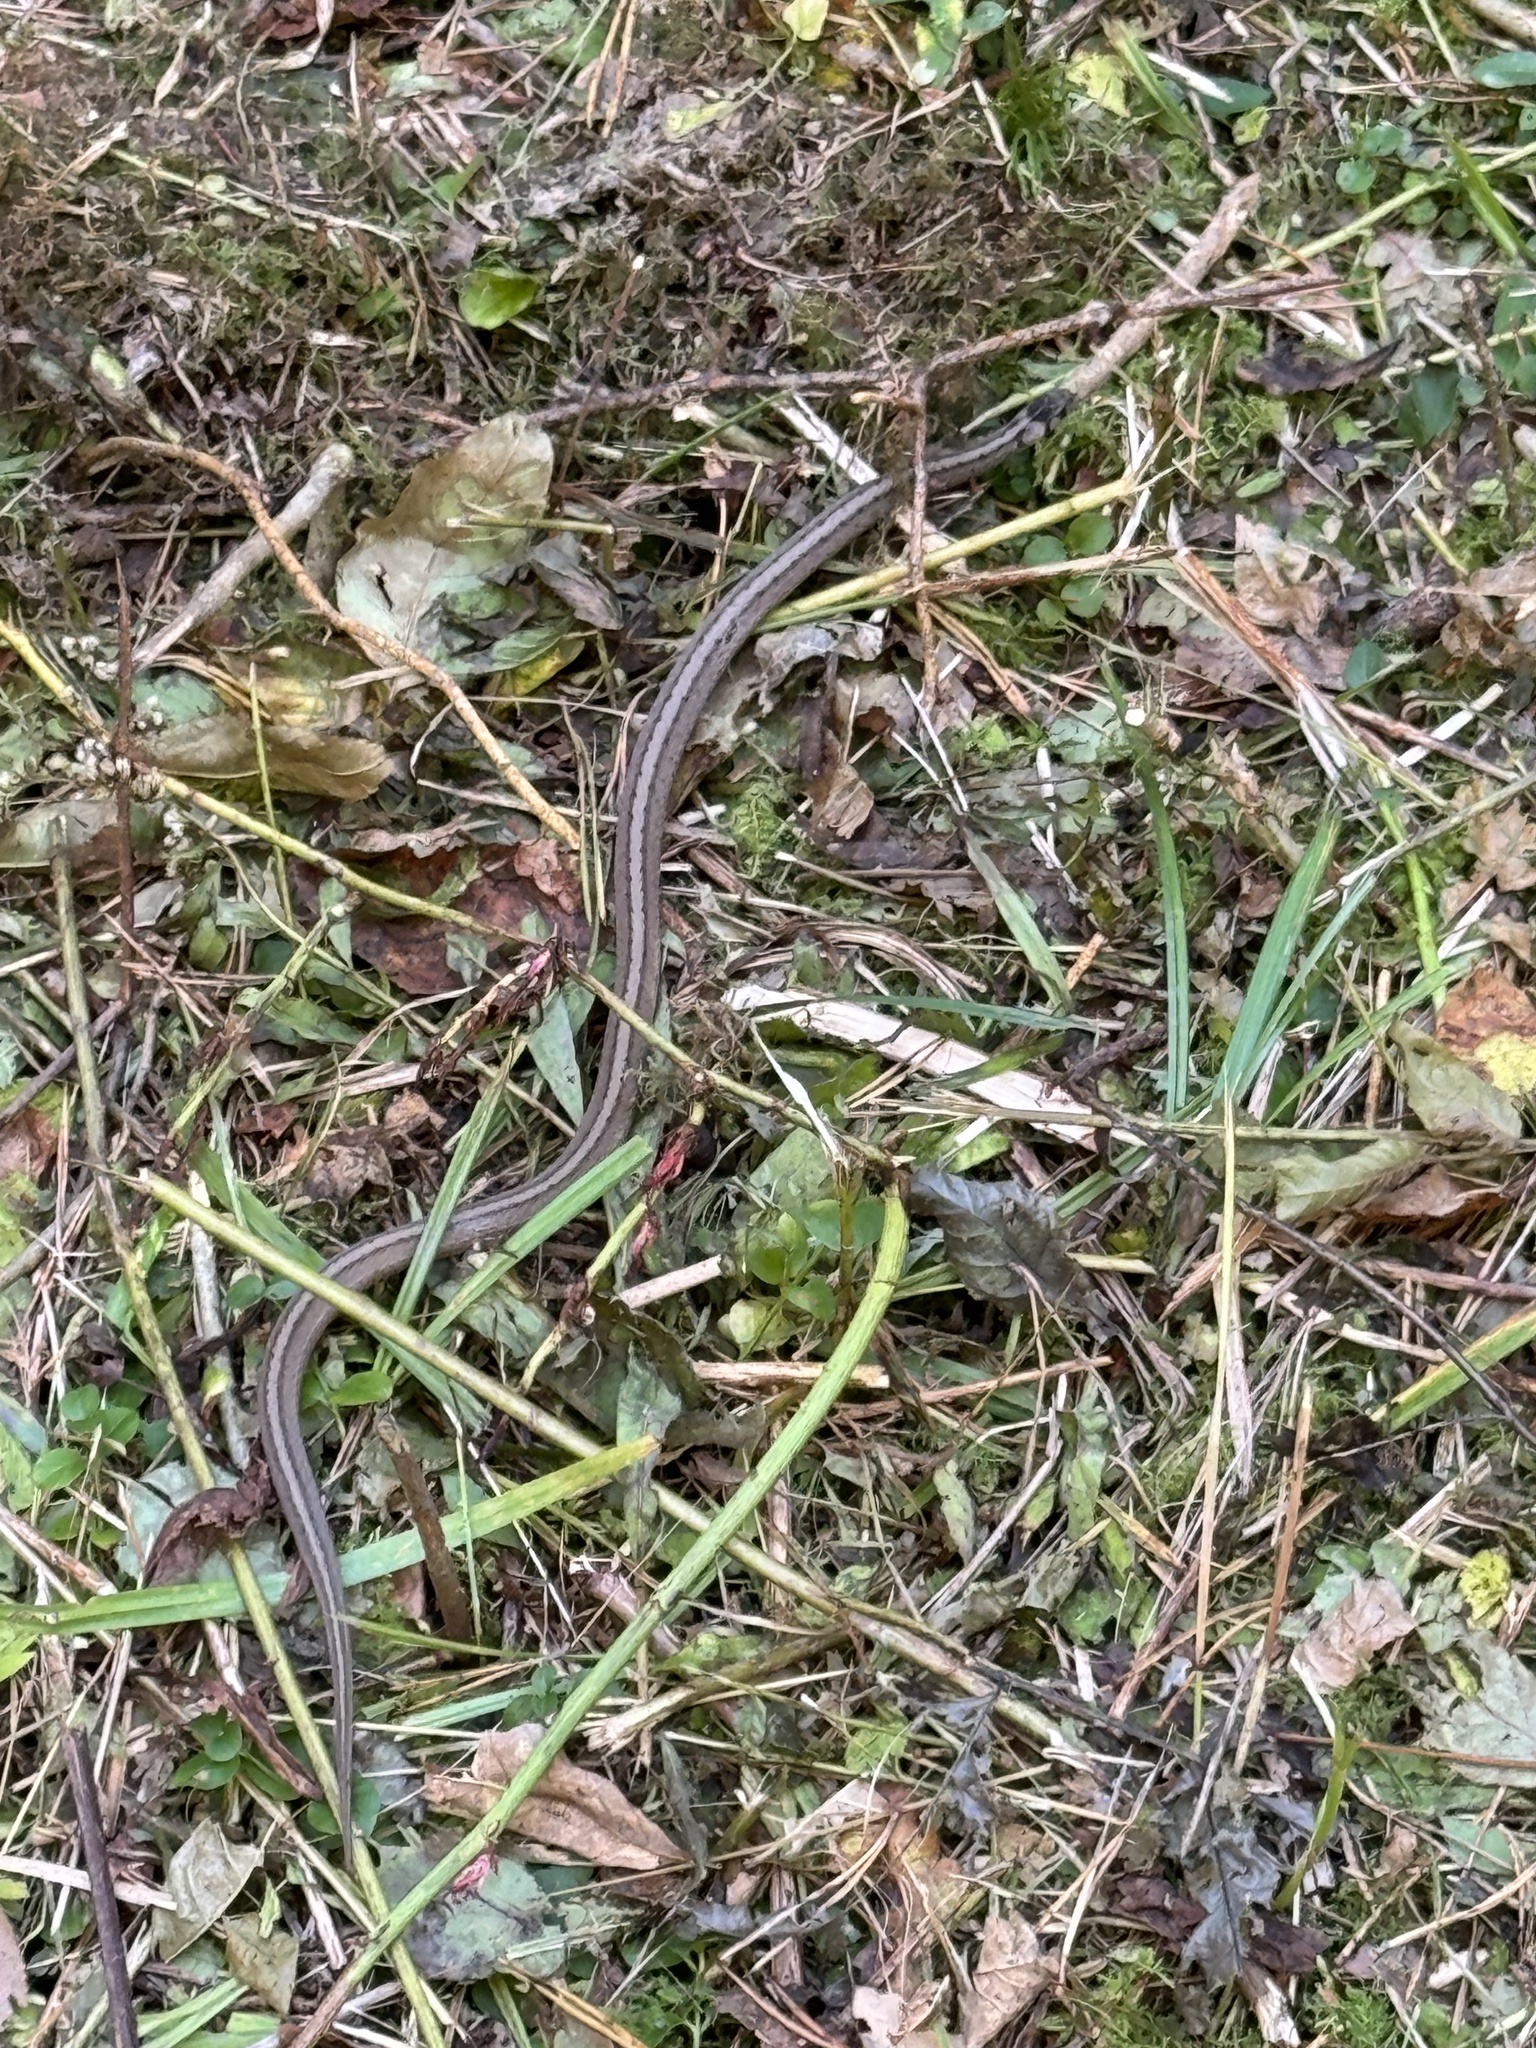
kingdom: Animalia
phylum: Chordata
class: Squamata
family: Colubridae
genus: Storeria
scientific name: Storeria dekayi
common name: (dekay’s) brown snake
